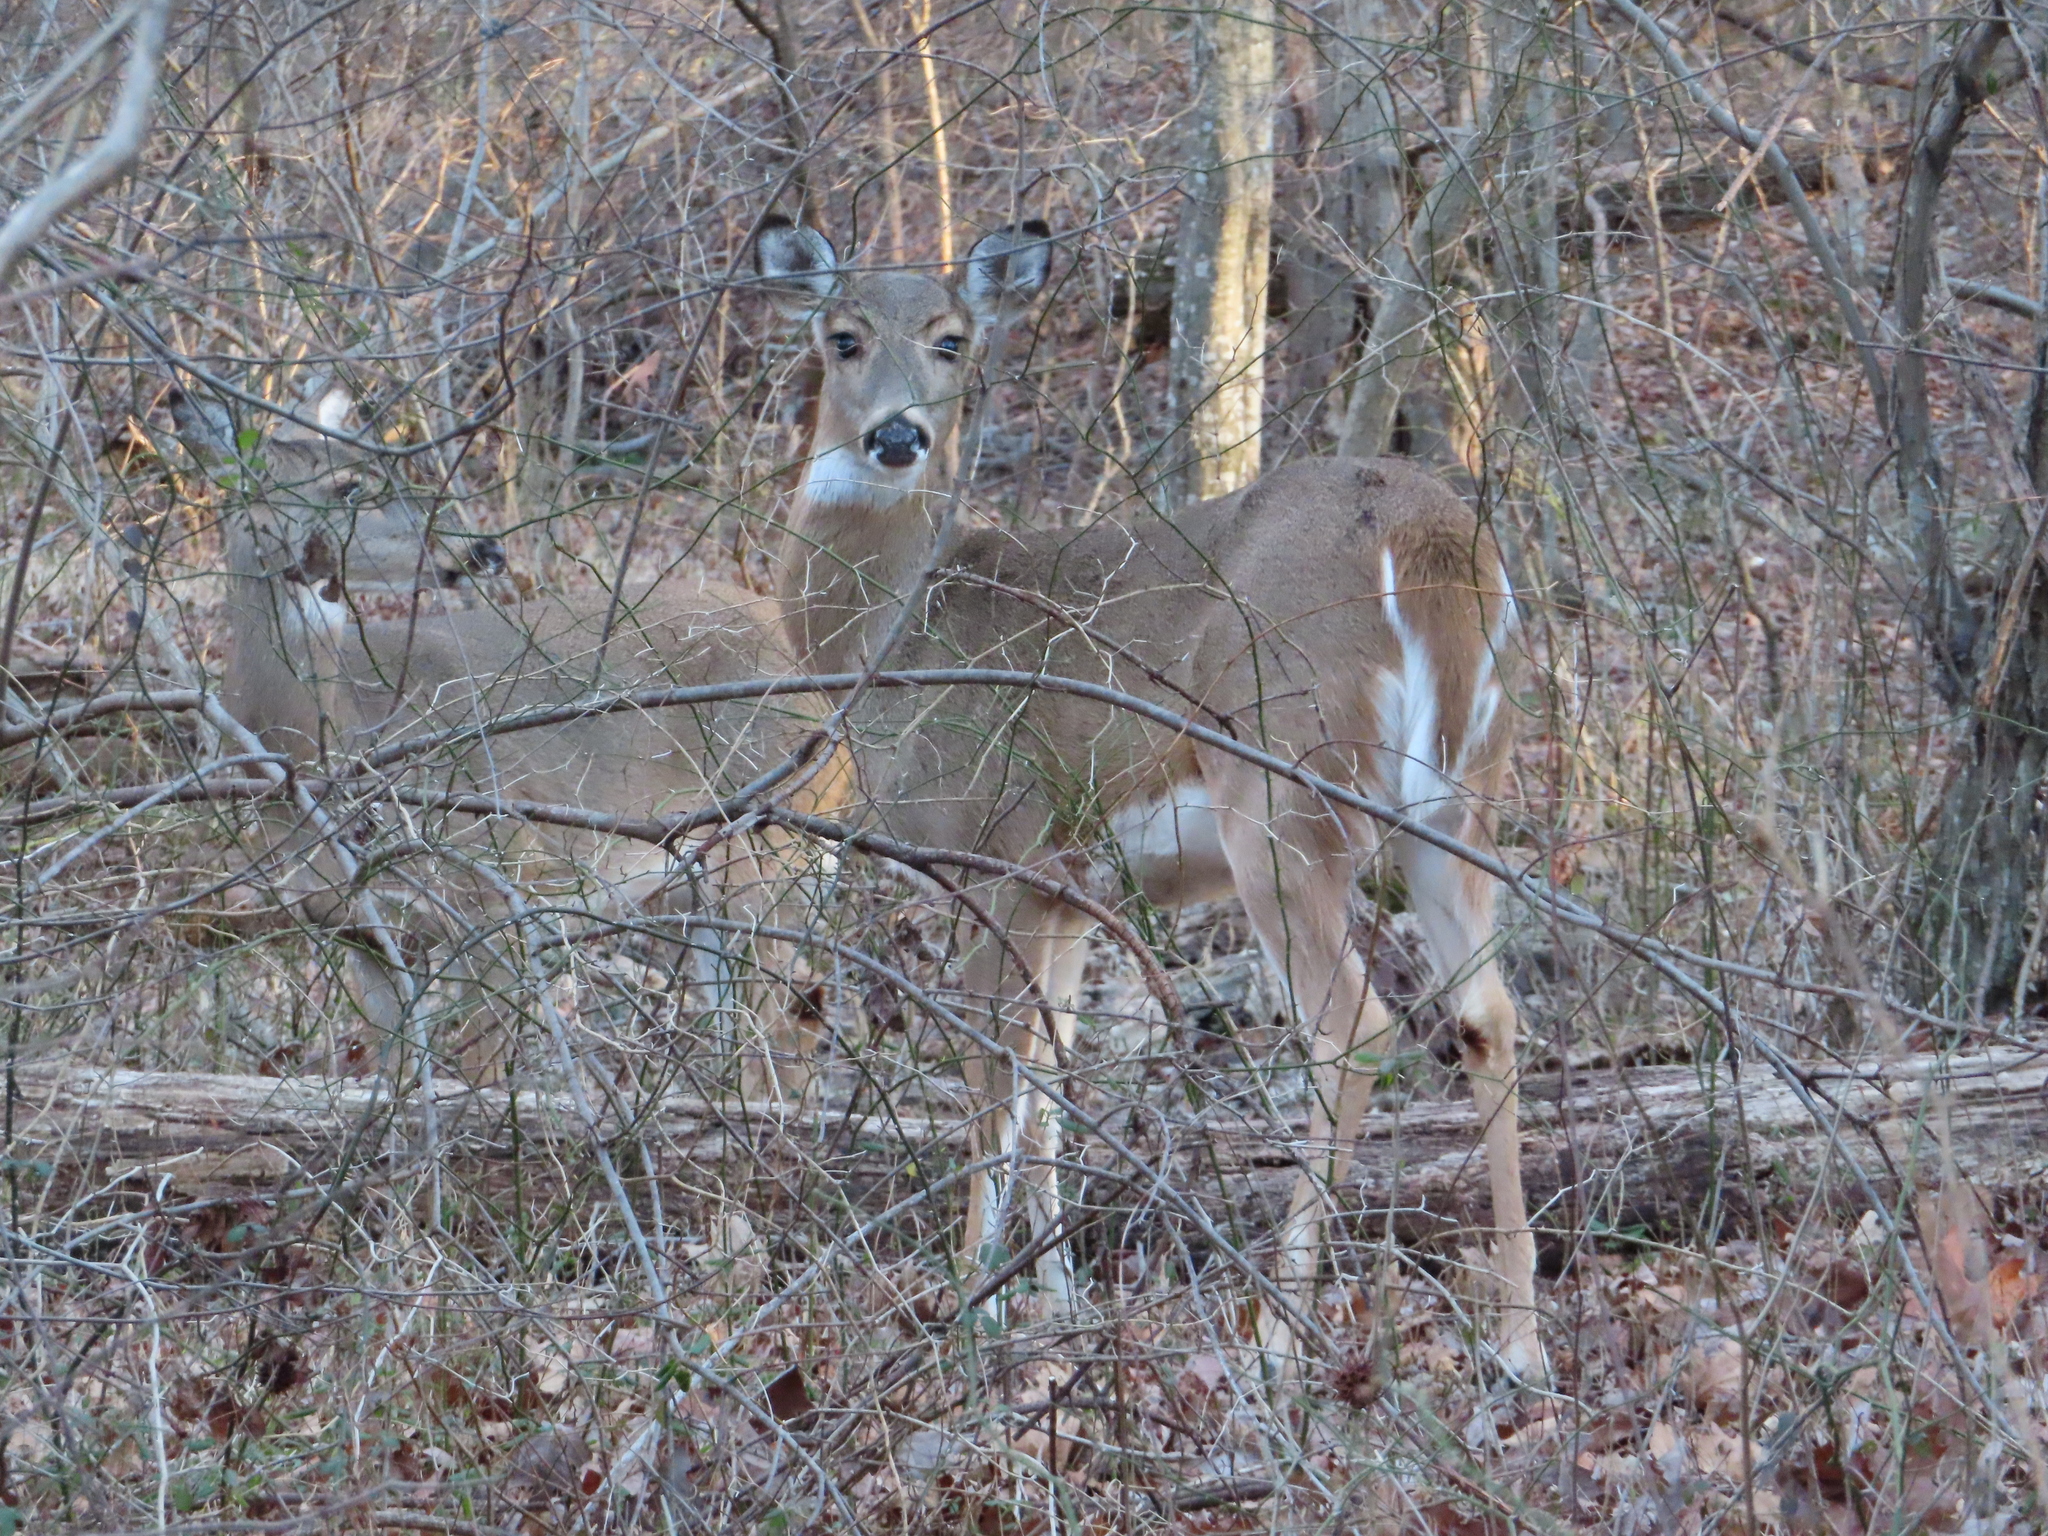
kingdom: Animalia
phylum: Chordata
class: Mammalia
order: Artiodactyla
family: Cervidae
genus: Odocoileus
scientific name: Odocoileus virginianus
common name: White-tailed deer
